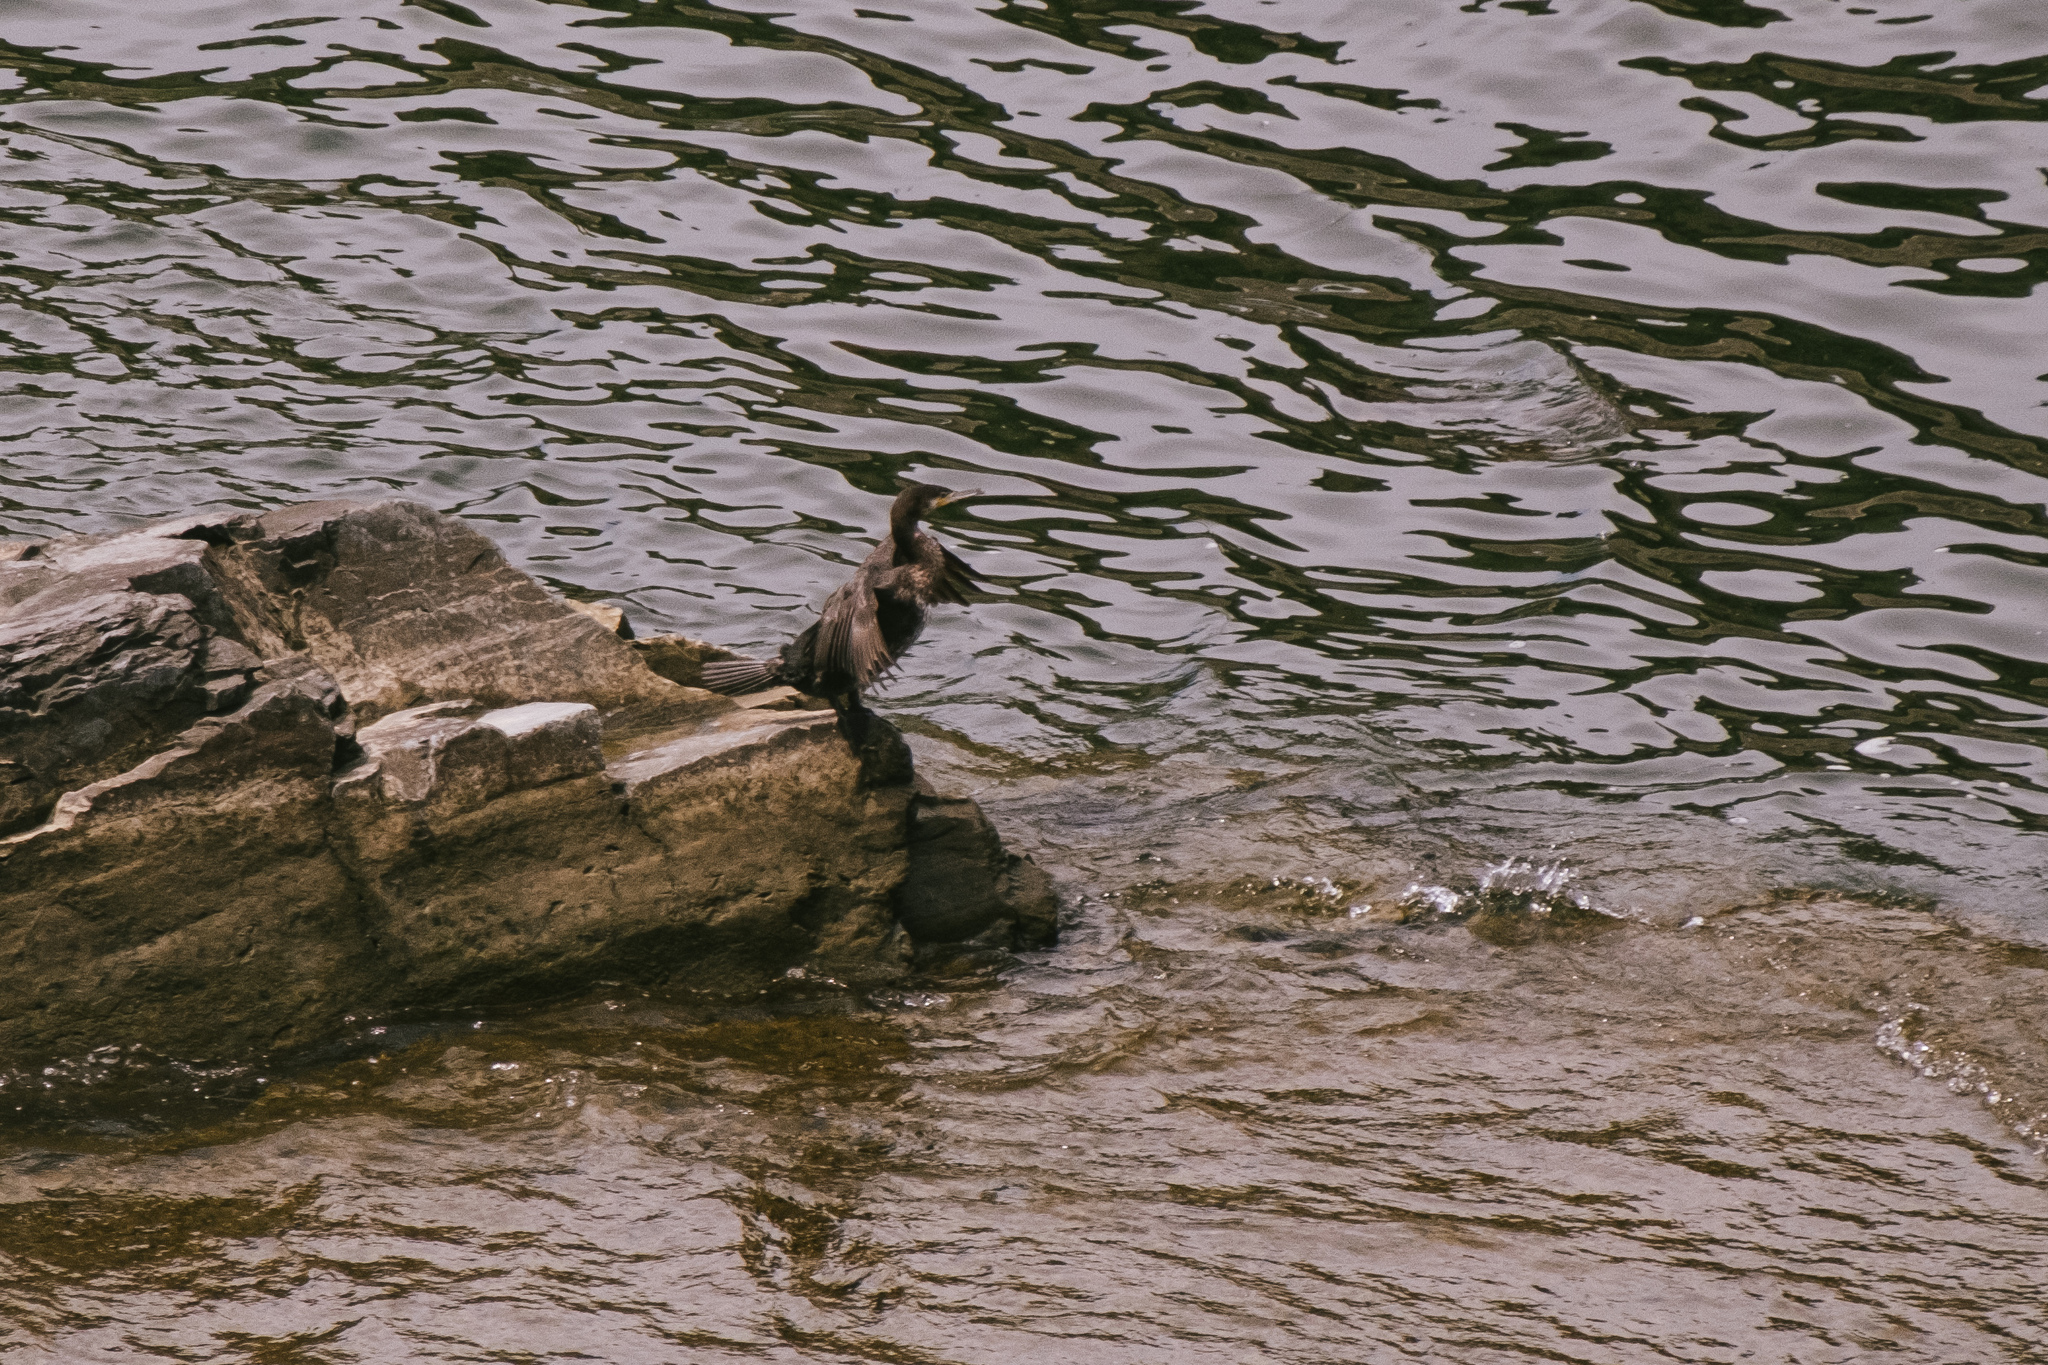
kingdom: Animalia
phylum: Chordata
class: Aves
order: Suliformes
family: Phalacrocoracidae
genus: Phalacrocorax
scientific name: Phalacrocorax carbo
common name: Great cormorant
